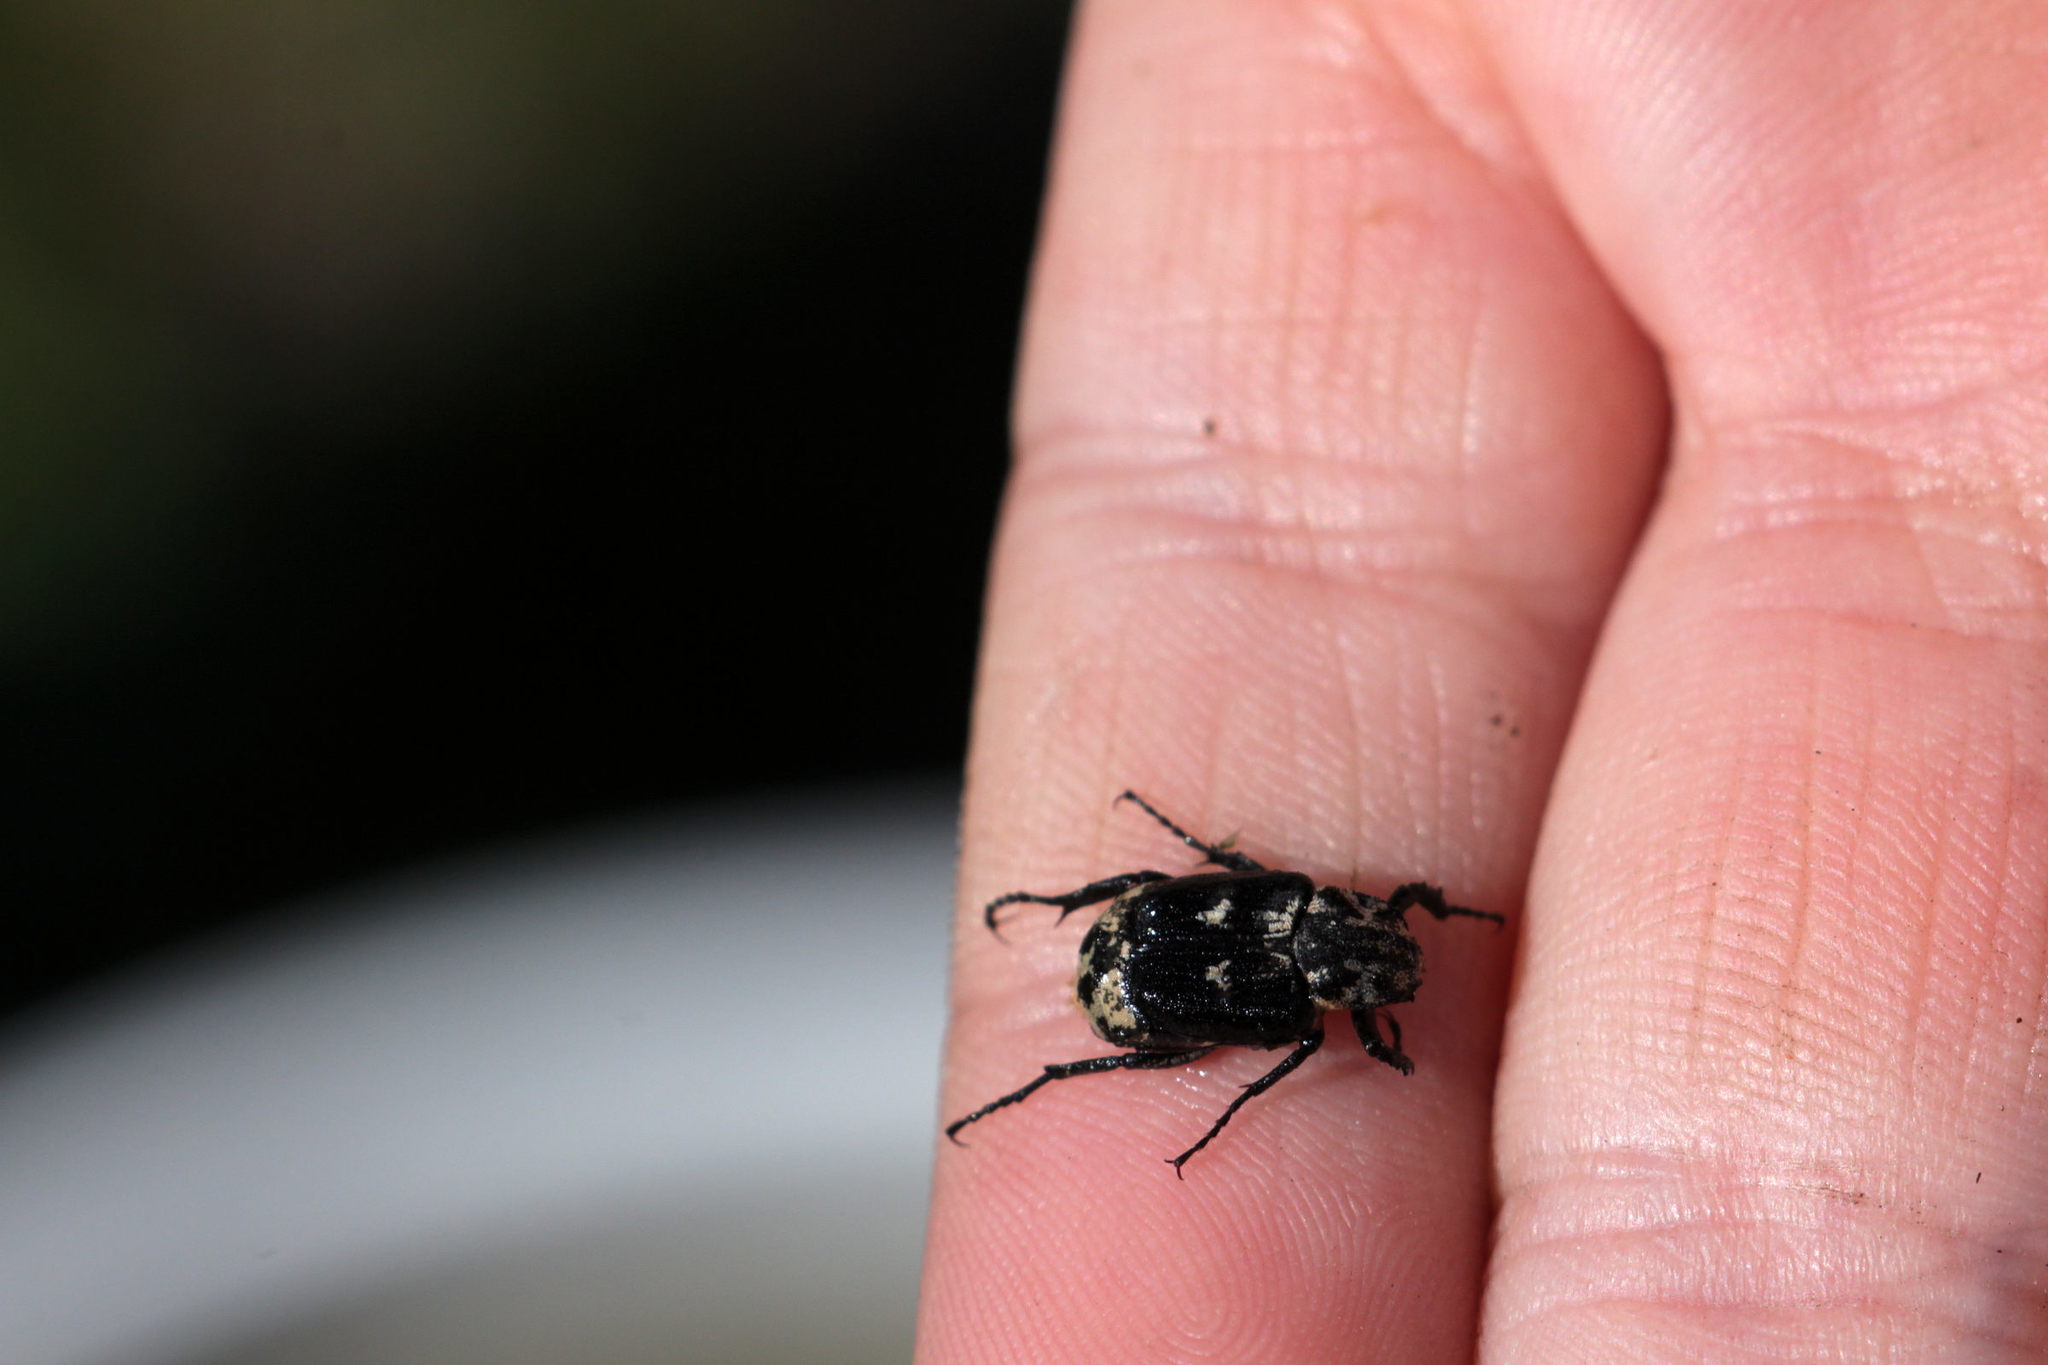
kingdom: Animalia
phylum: Arthropoda
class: Insecta
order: Coleoptera
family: Scarabaeidae
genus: Valgus
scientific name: Valgus hemipterus
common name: Bug flower chafer
